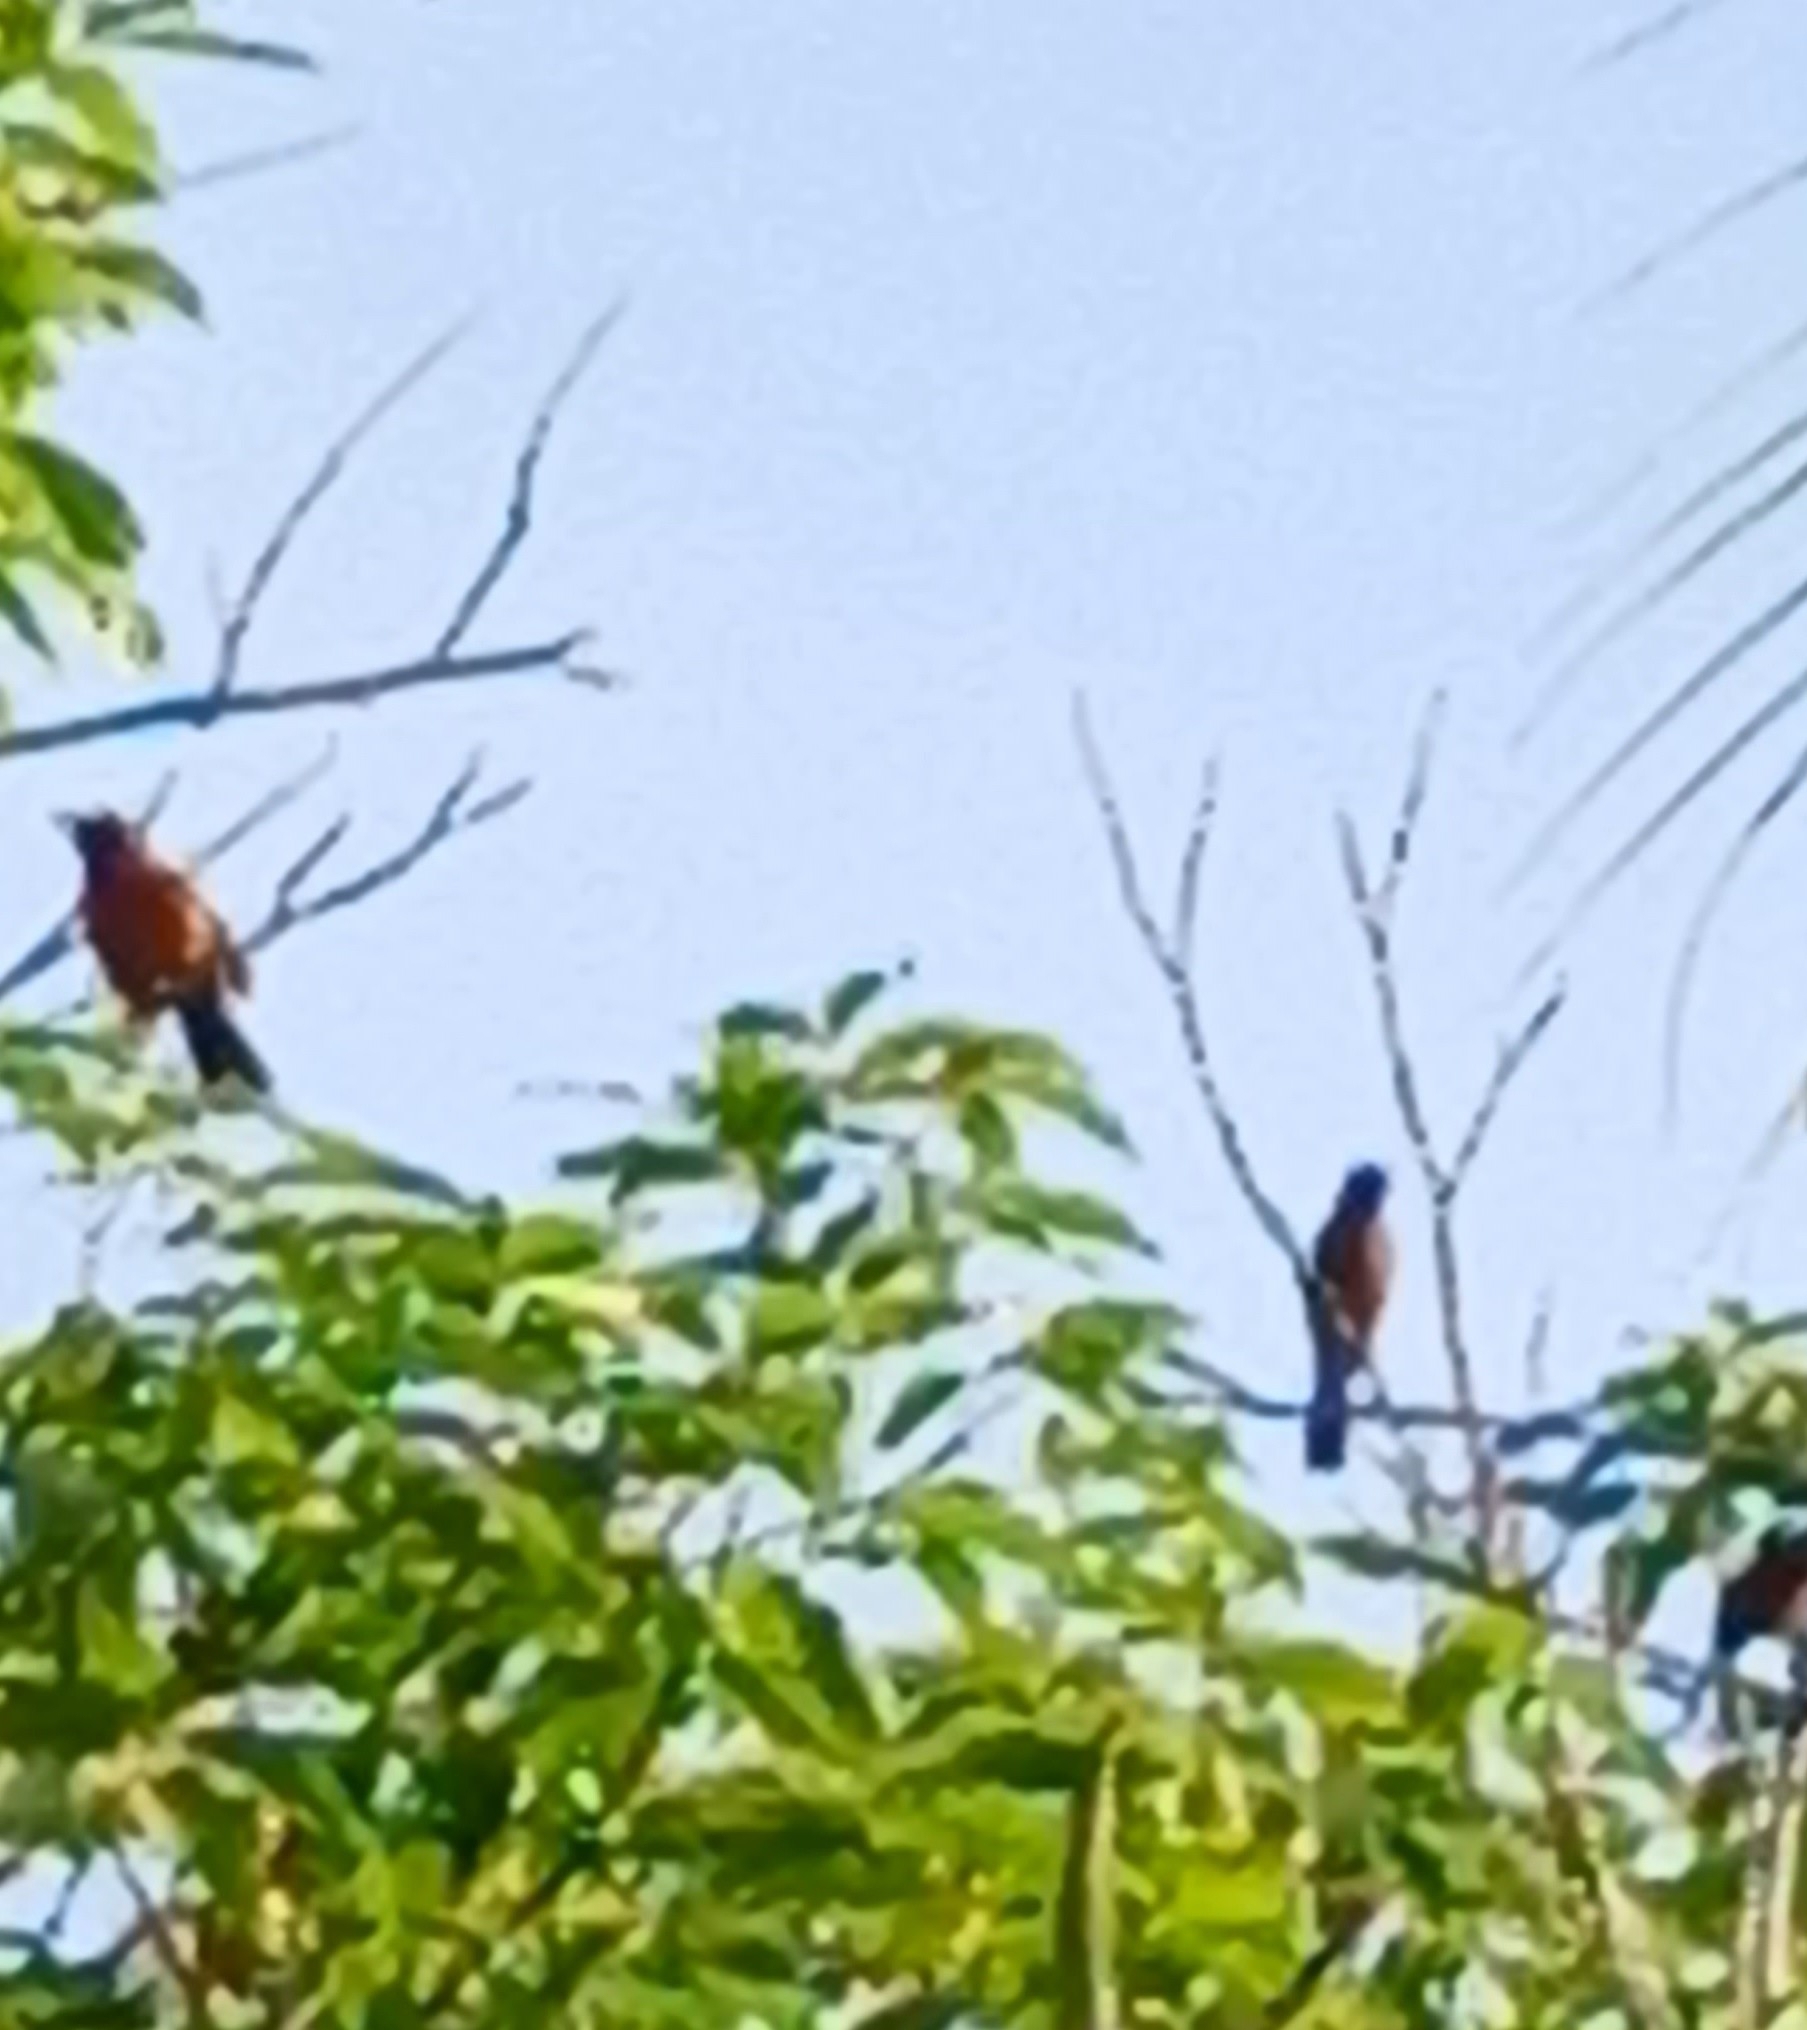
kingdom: Animalia
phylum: Chordata
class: Aves
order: Passeriformes
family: Thraupidae
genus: Ramphocelus
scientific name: Ramphocelus dimidiatus
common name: Crimson-backed tanager
